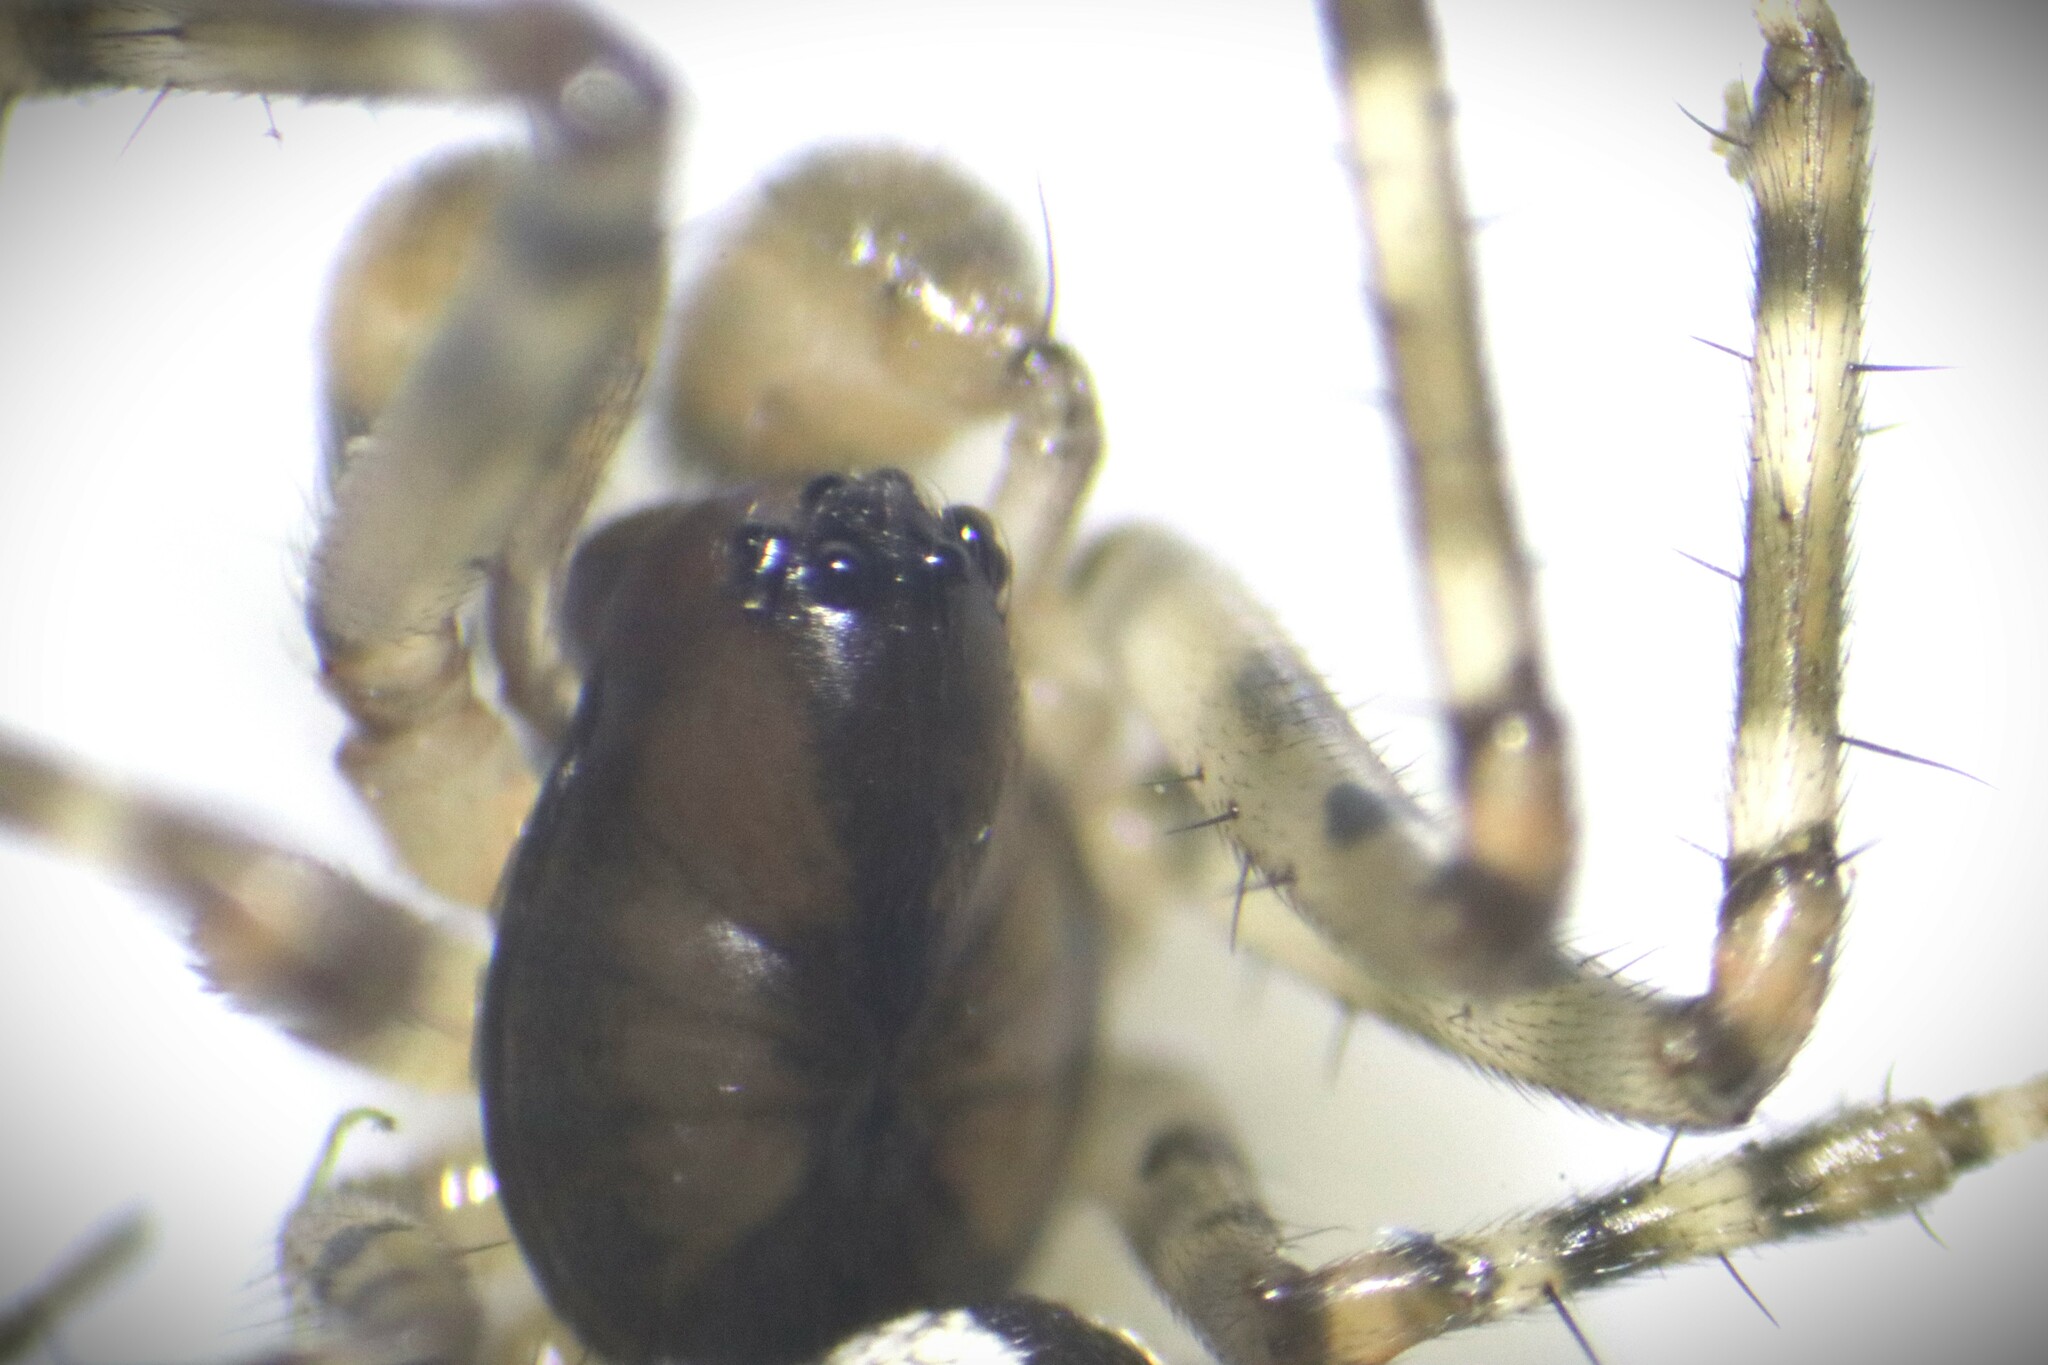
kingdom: Animalia
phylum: Arthropoda
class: Arachnida
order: Araneae
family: Linyphiidae
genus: Neriene
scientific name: Neriene montana
